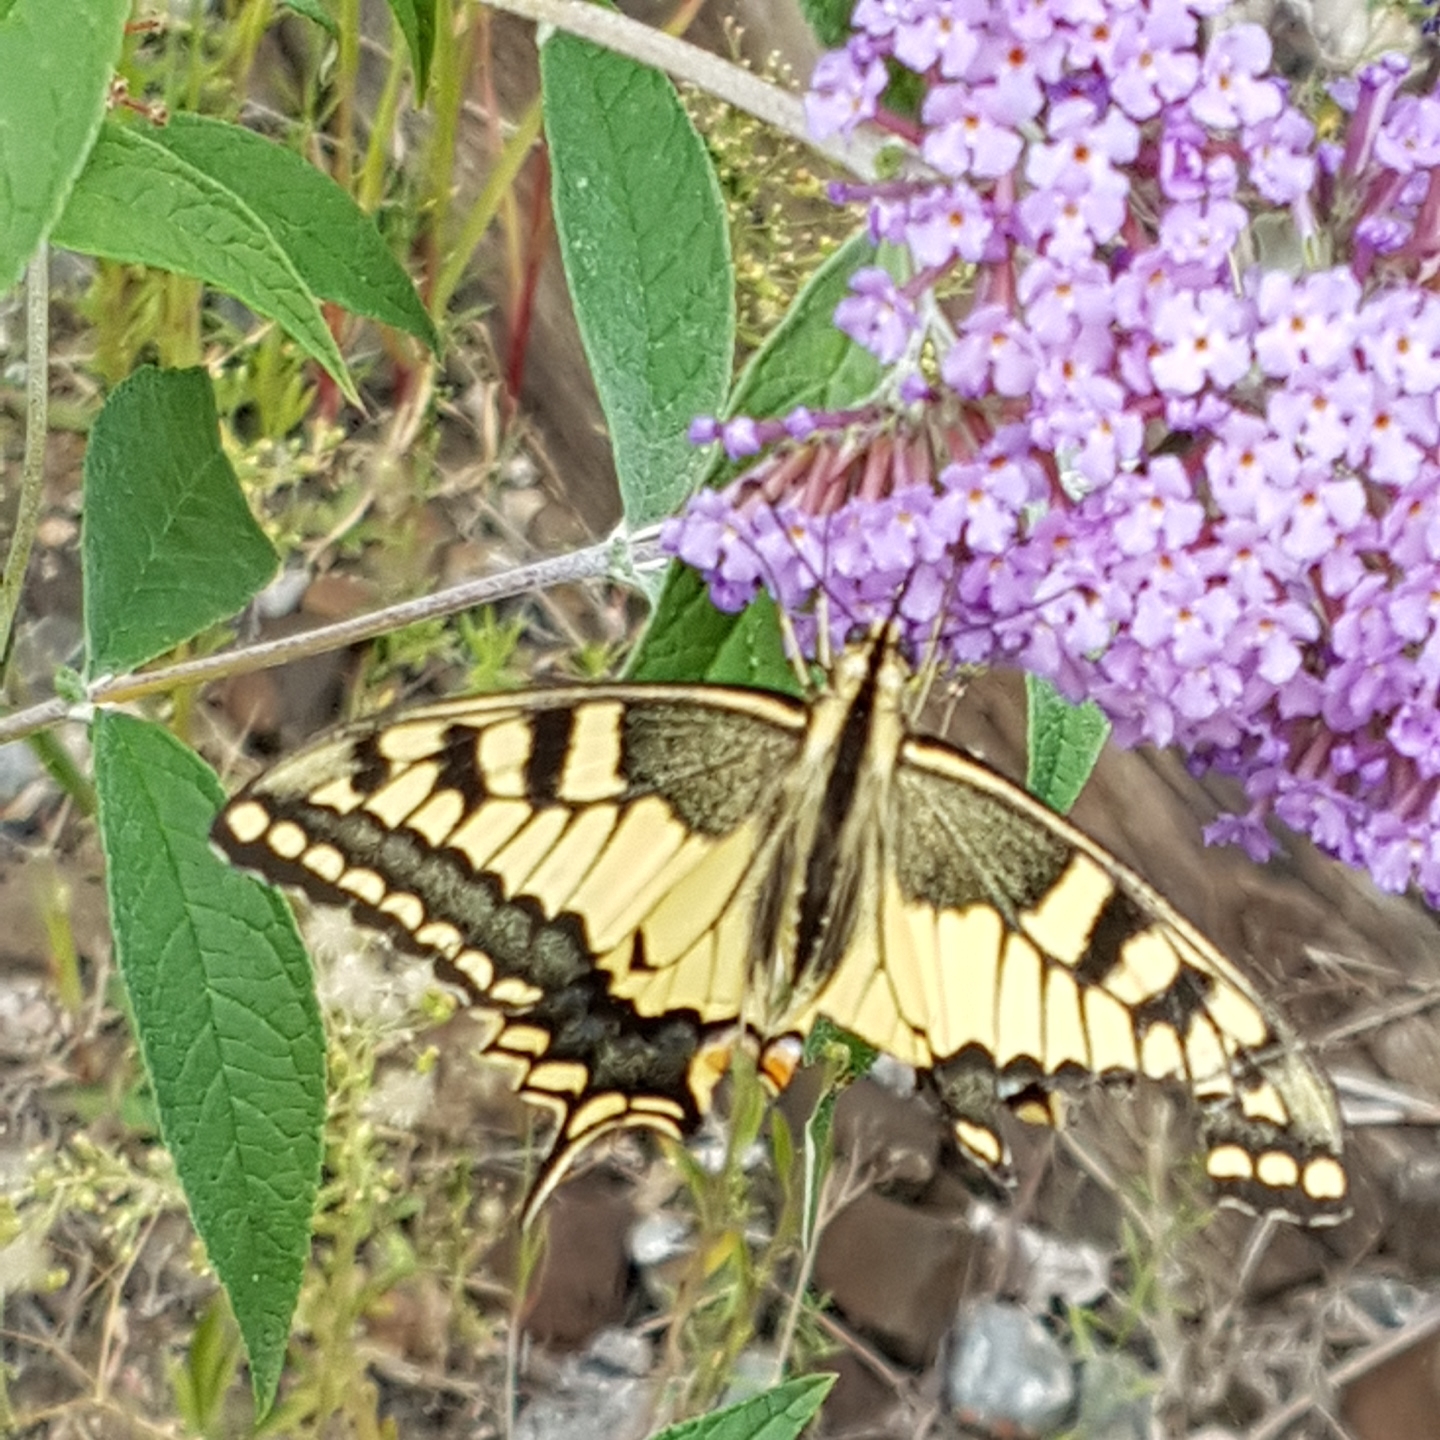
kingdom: Animalia
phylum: Arthropoda
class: Insecta
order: Lepidoptera
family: Papilionidae
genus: Papilio
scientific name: Papilio machaon
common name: Swallowtail
